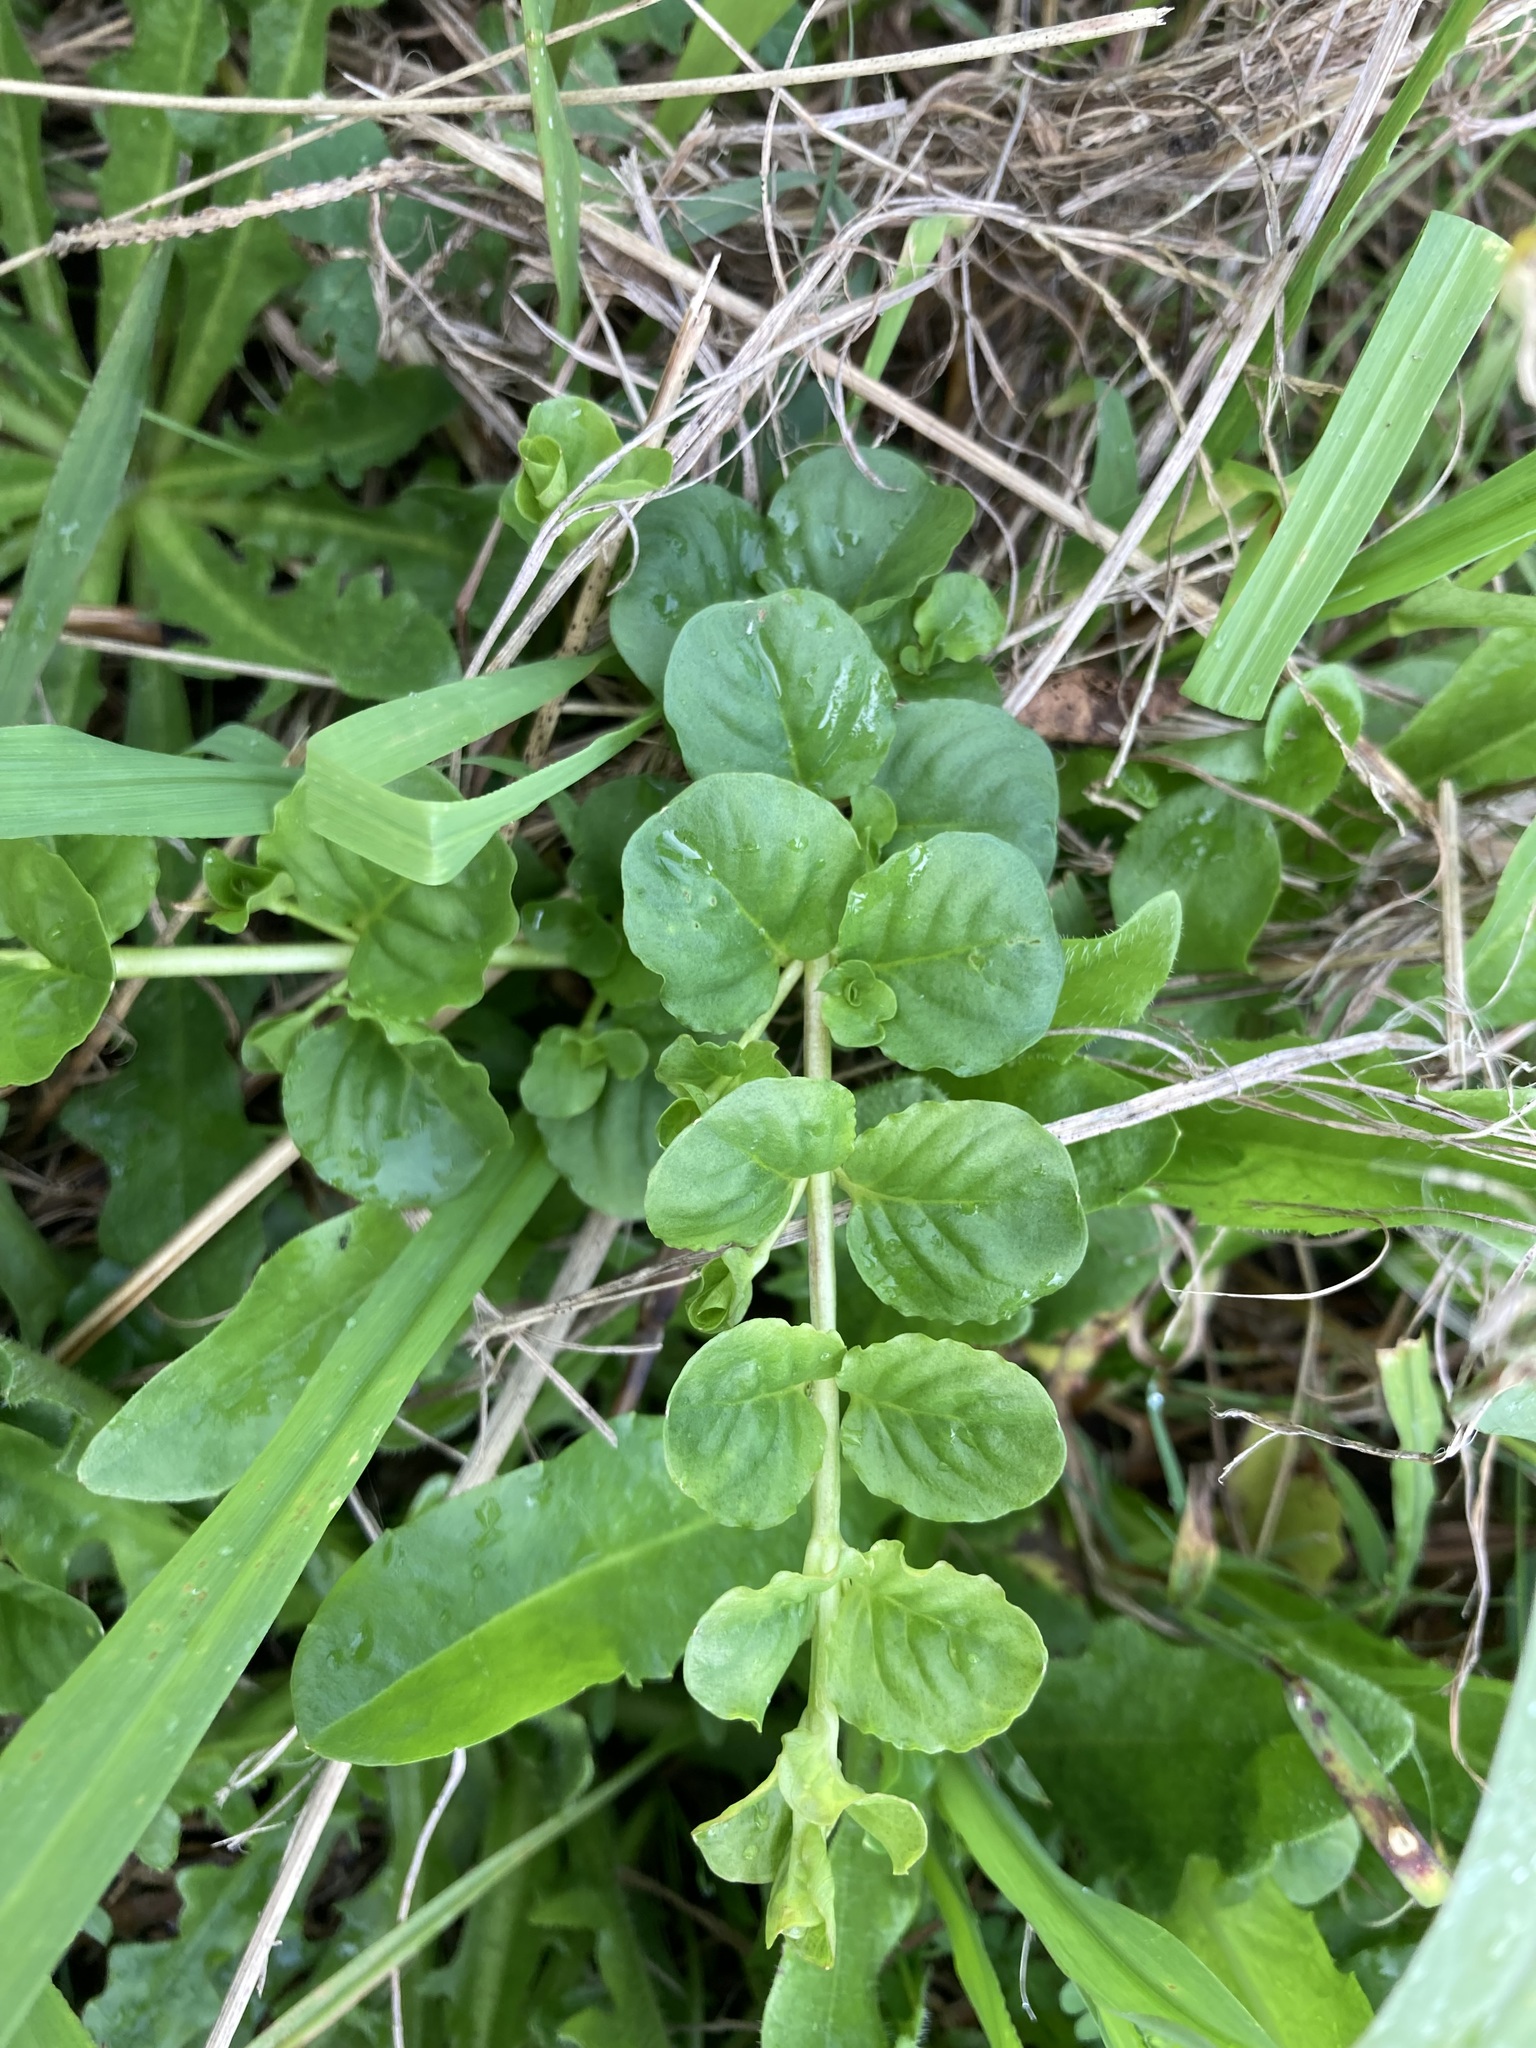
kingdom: Plantae
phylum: Tracheophyta
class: Magnoliopsida
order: Ericales
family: Primulaceae
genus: Lysimachia
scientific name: Lysimachia nummularia
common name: Moneywort
